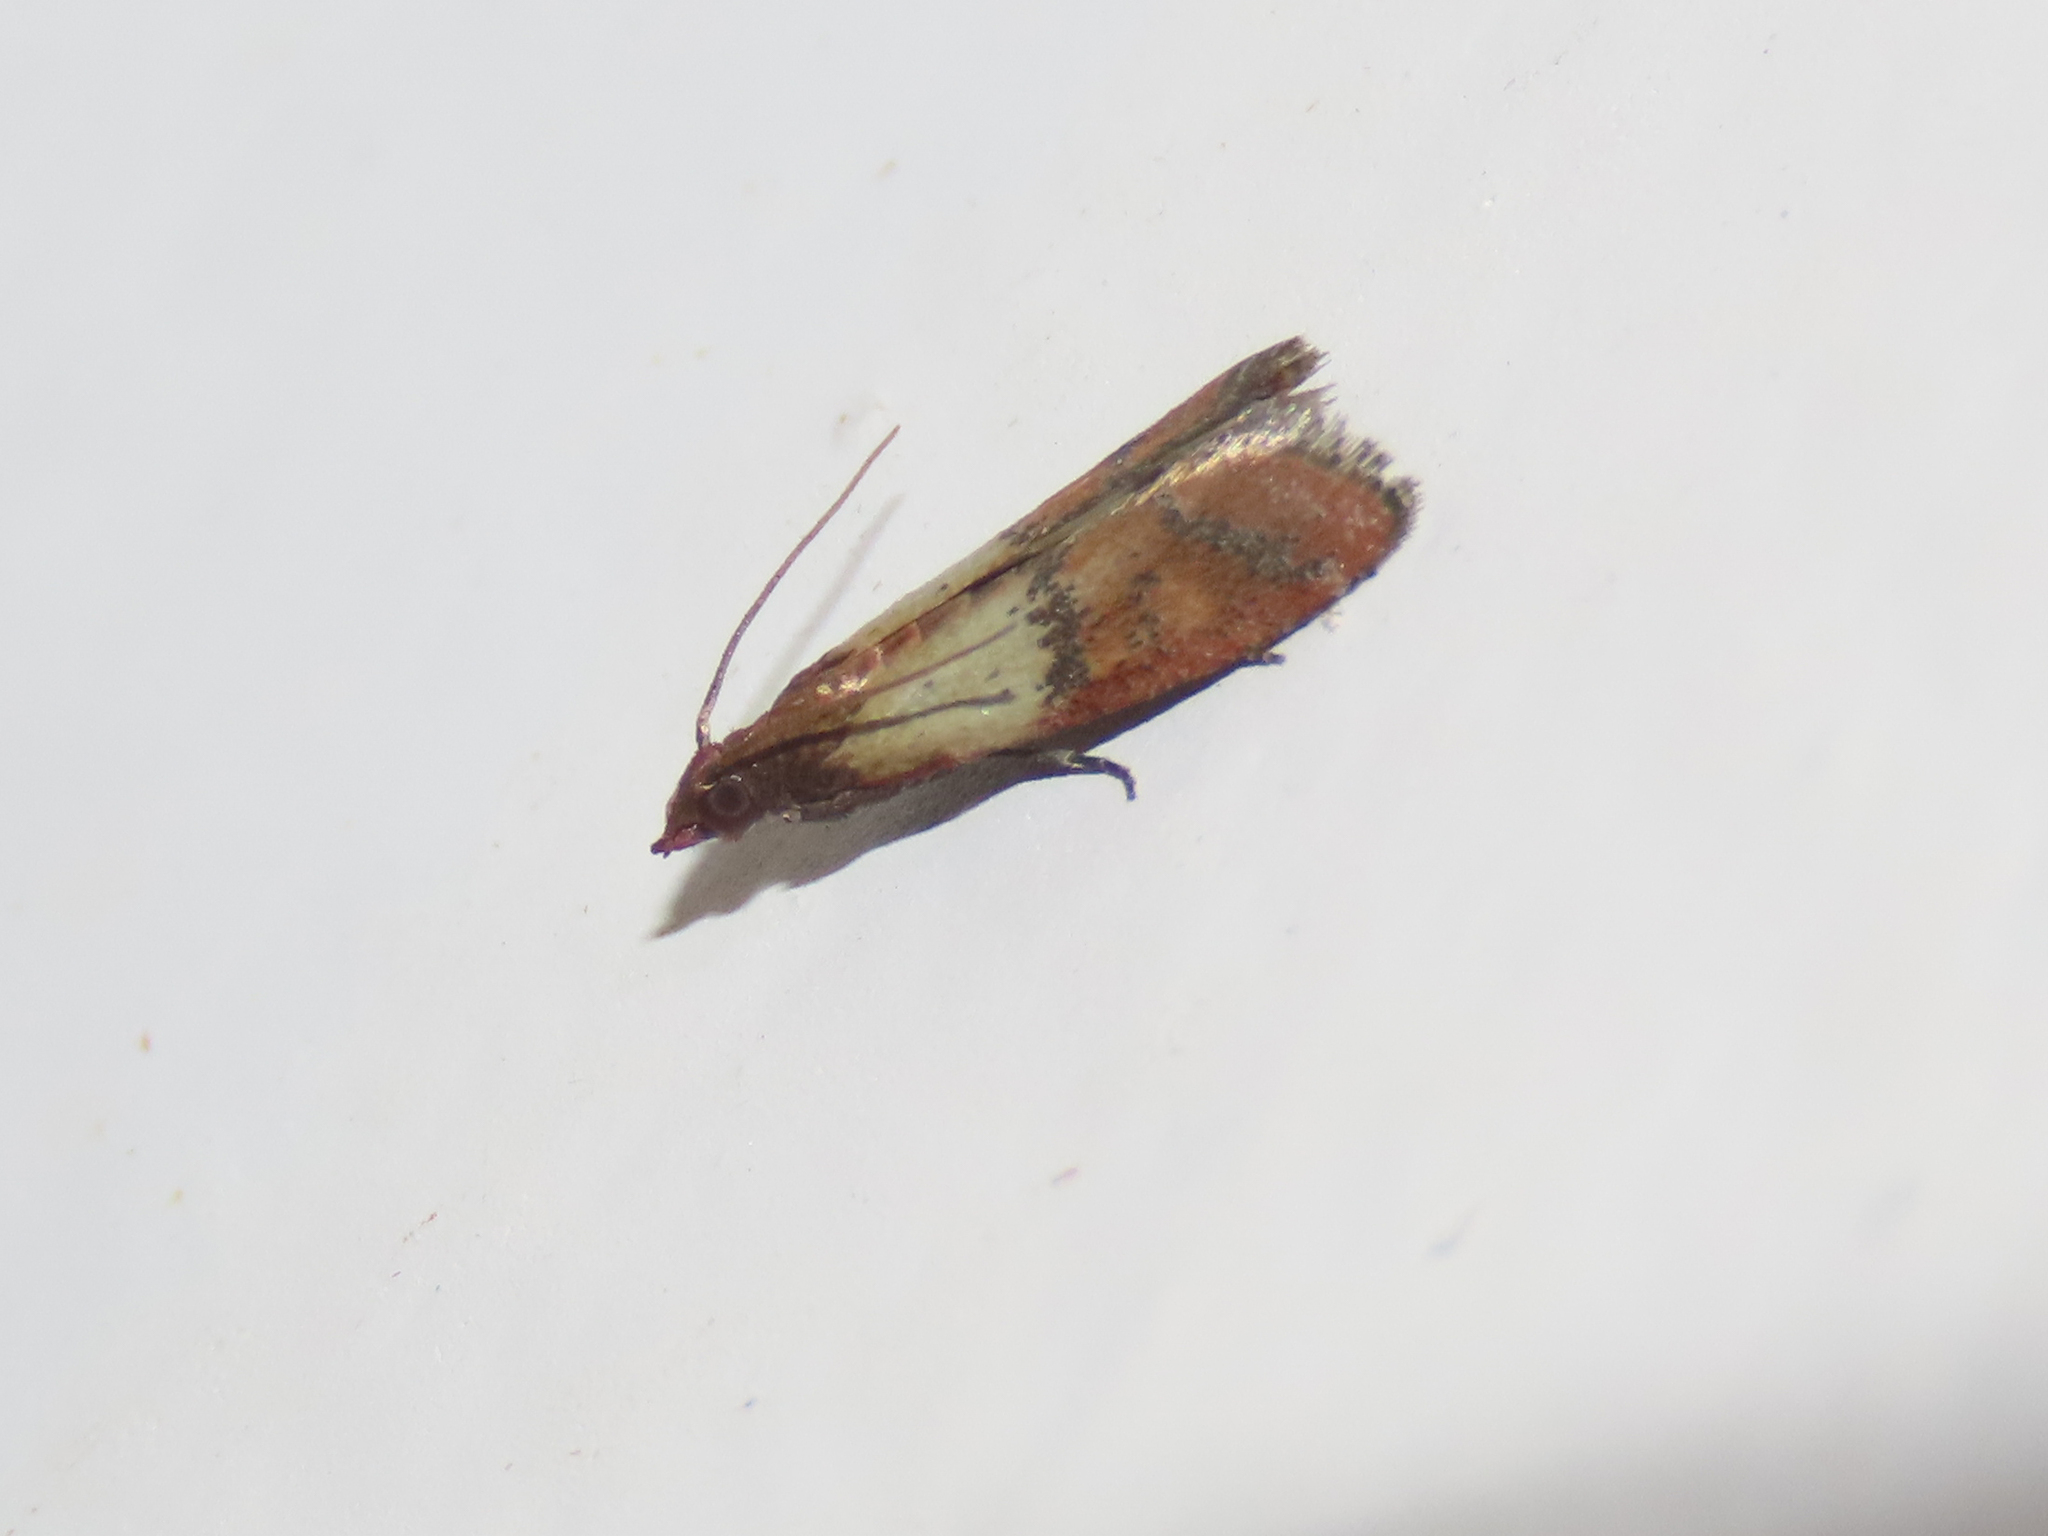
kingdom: Animalia
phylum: Arthropoda
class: Insecta
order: Lepidoptera
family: Pyralidae
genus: Plodia
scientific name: Plodia interpunctella
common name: Indian meal moth
